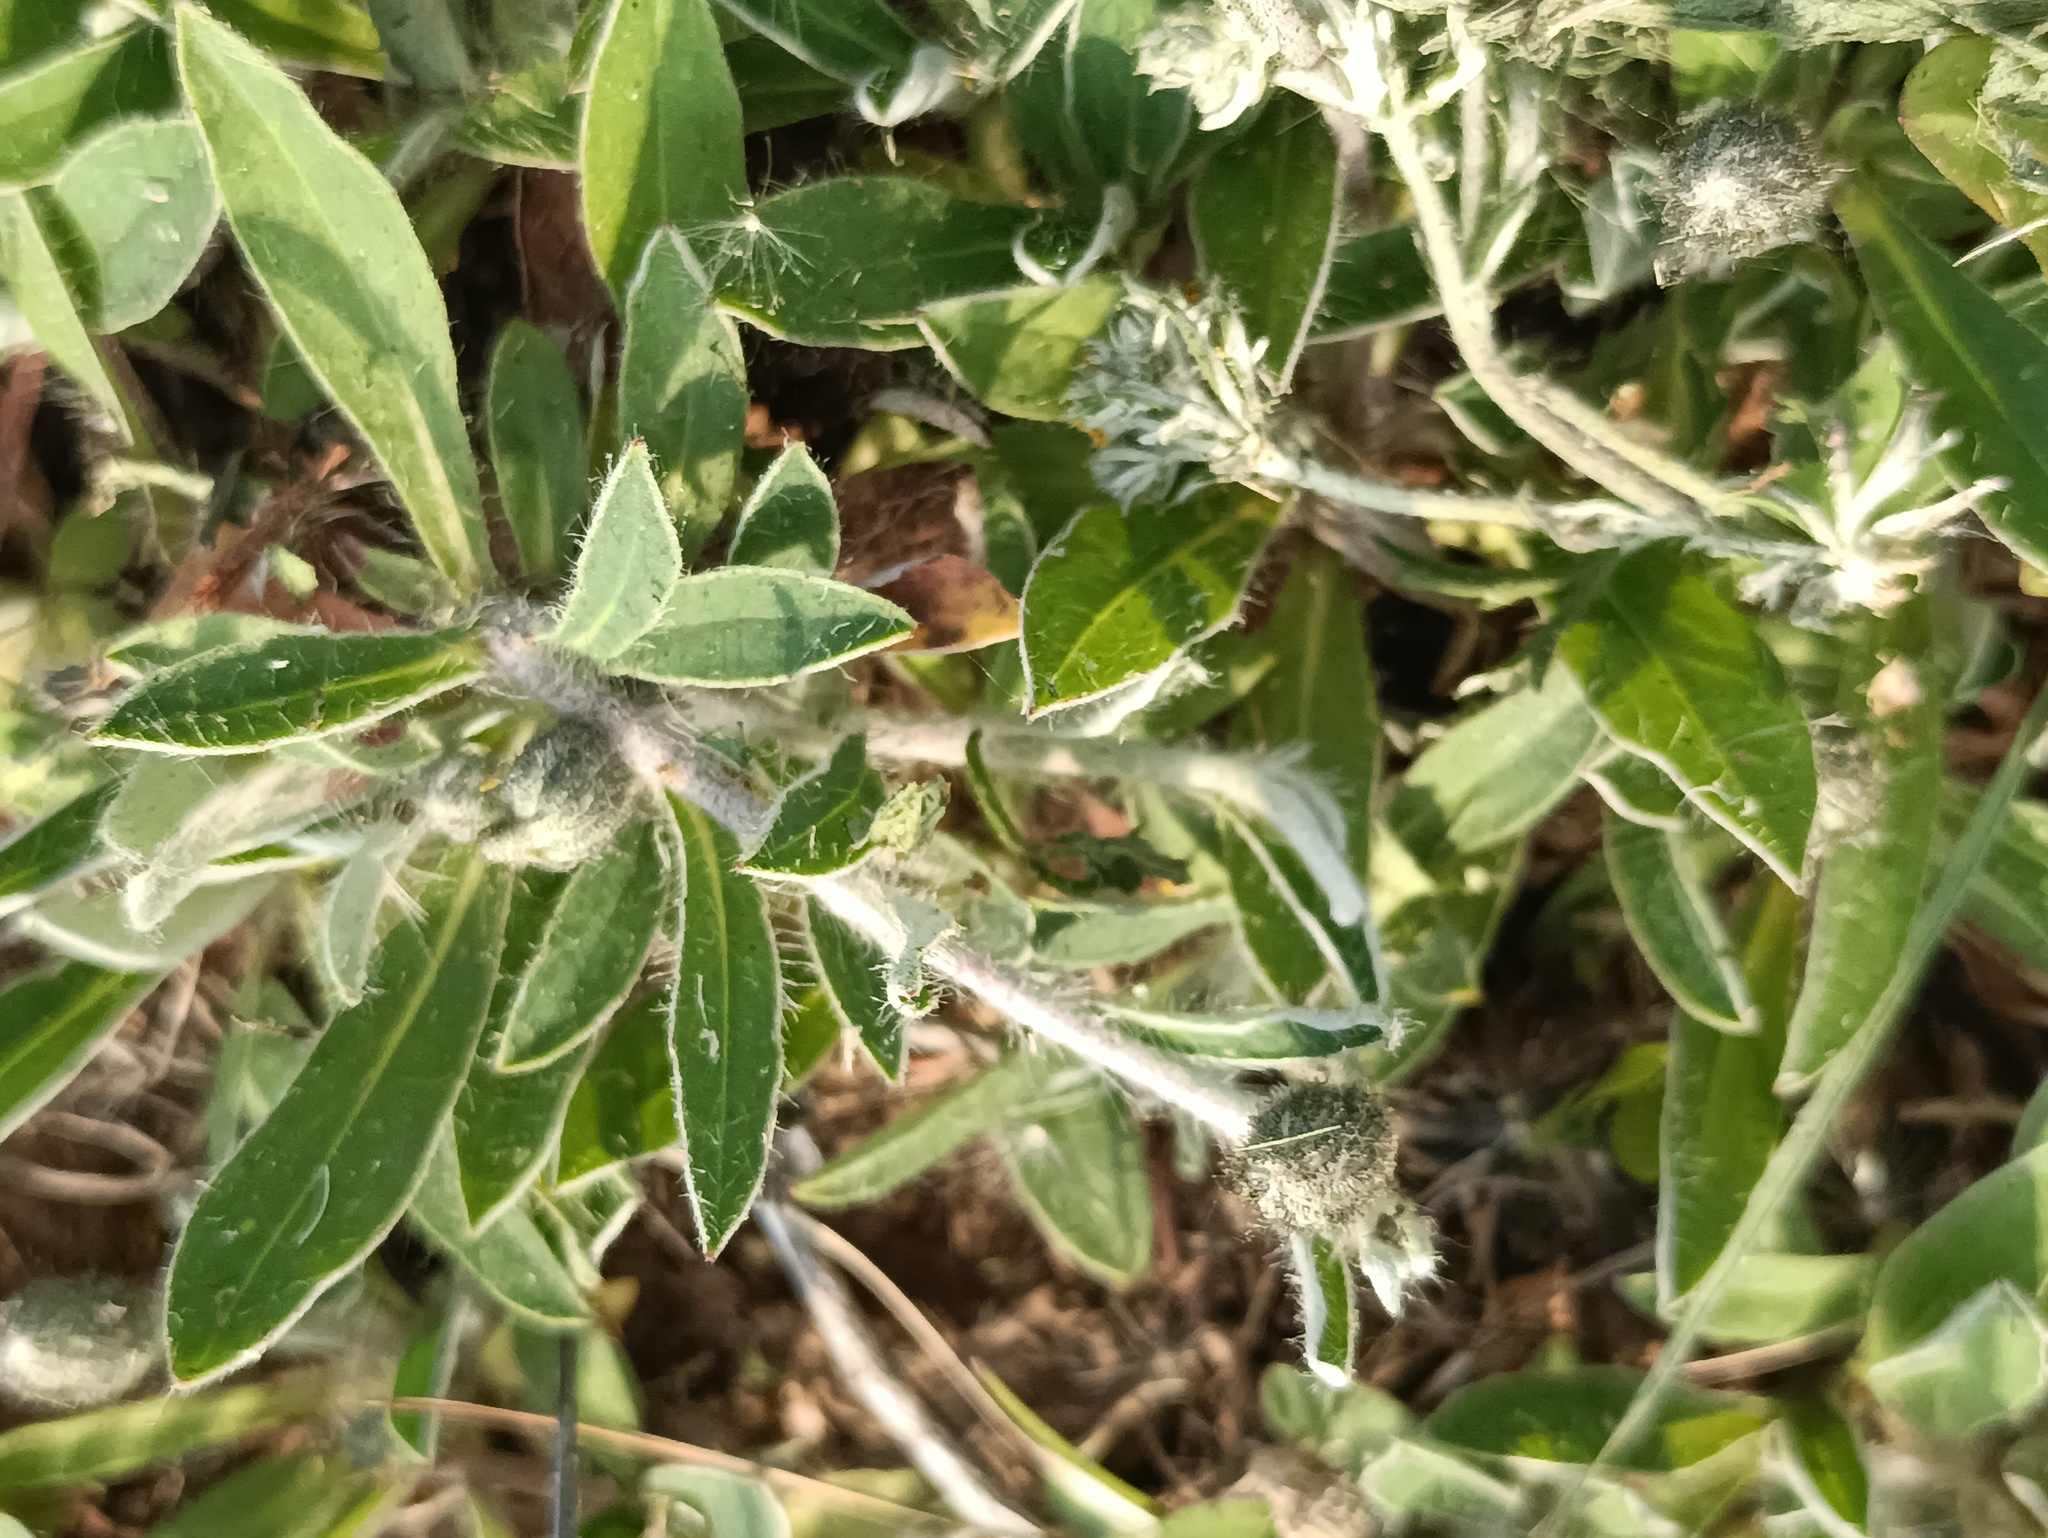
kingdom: Plantae
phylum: Tracheophyta
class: Magnoliopsida
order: Asterales
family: Asteraceae
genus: Pilosella
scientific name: Pilosella officinarum
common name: Mouse-ear hawkweed
